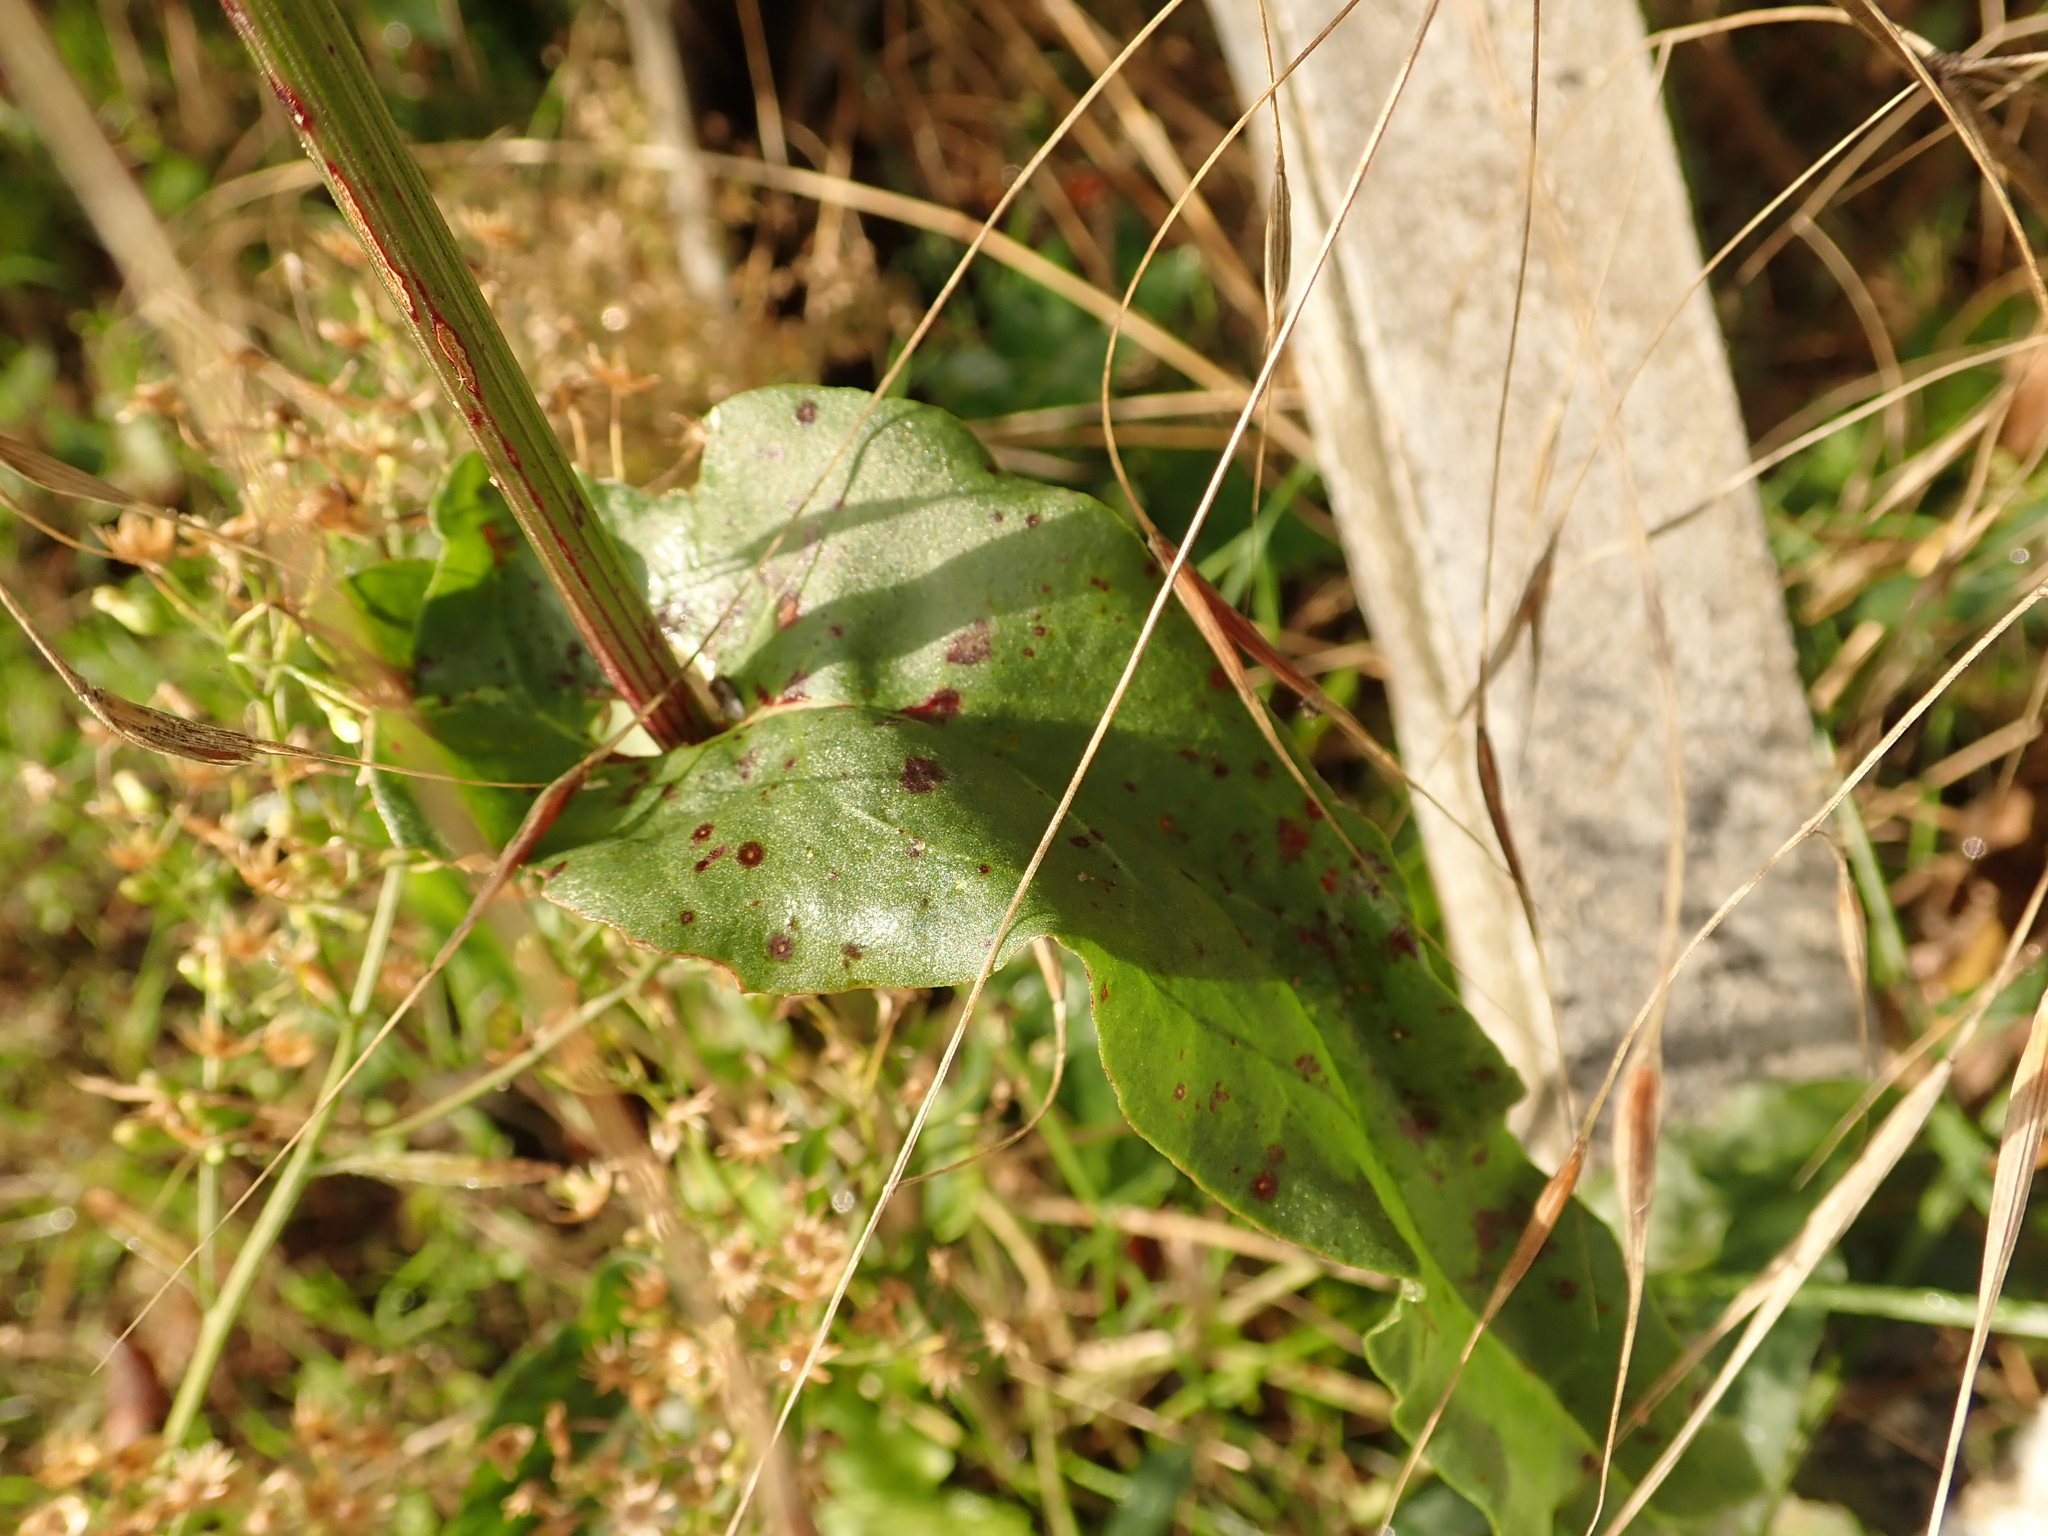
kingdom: Plantae
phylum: Tracheophyta
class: Magnoliopsida
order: Caryophyllales
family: Polygonaceae
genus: Rumex
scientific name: Rumex acetosa
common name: Garden sorrel
